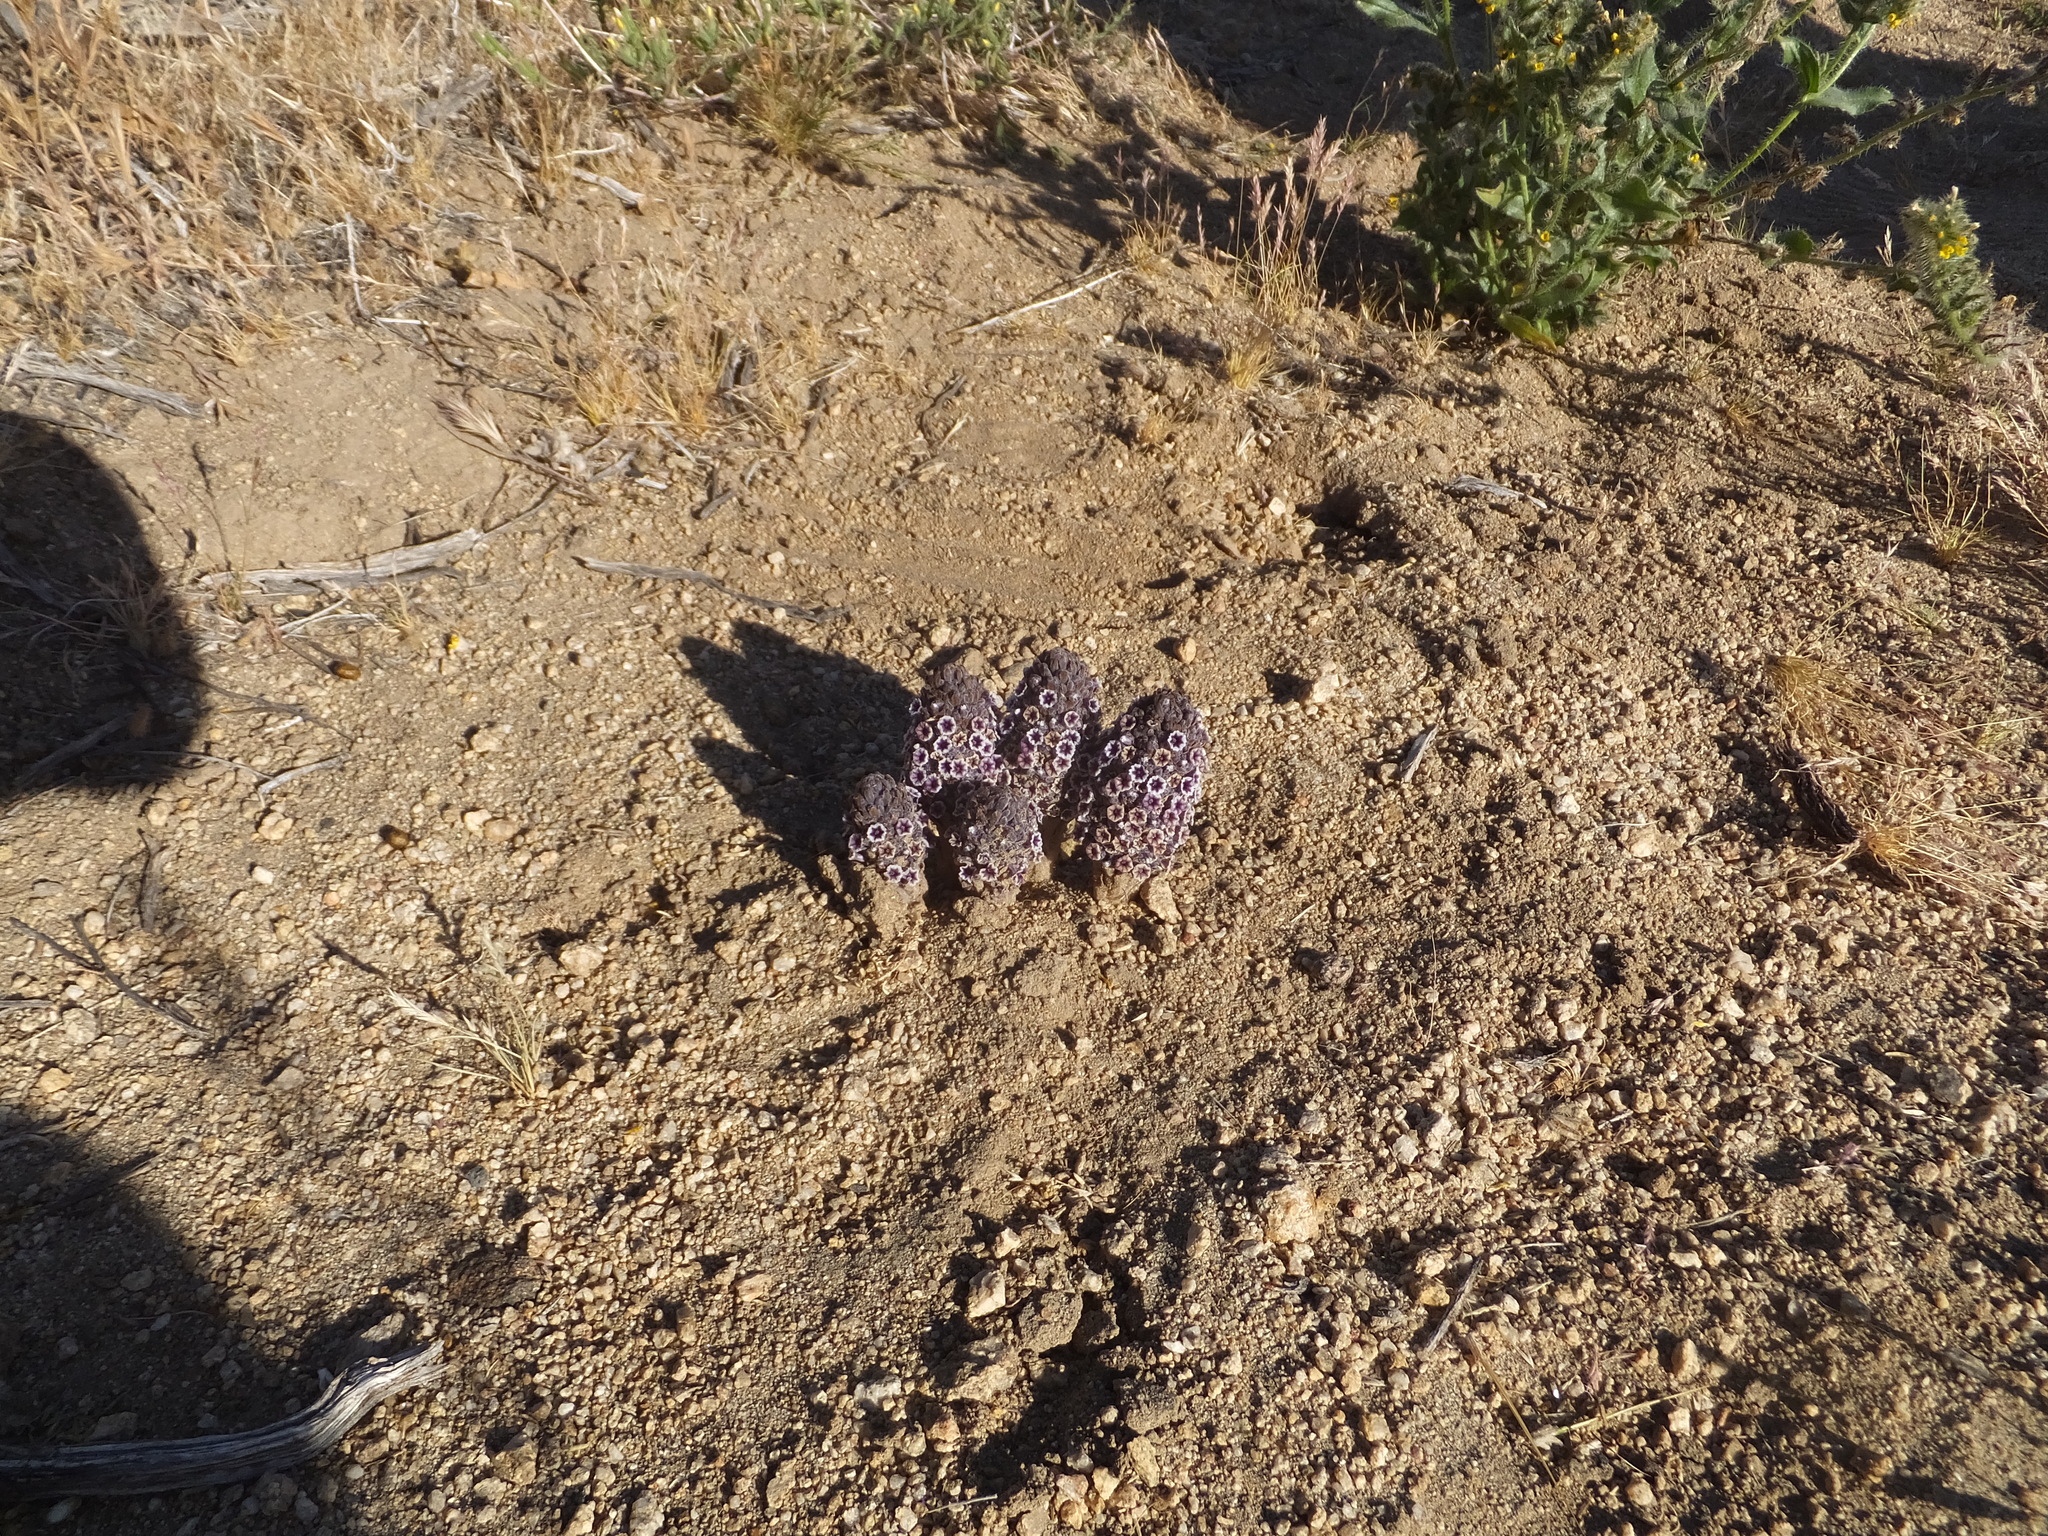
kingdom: Plantae
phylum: Tracheophyta
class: Magnoliopsida
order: Boraginales
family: Lennoaceae
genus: Pholisma
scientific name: Pholisma arenarium
